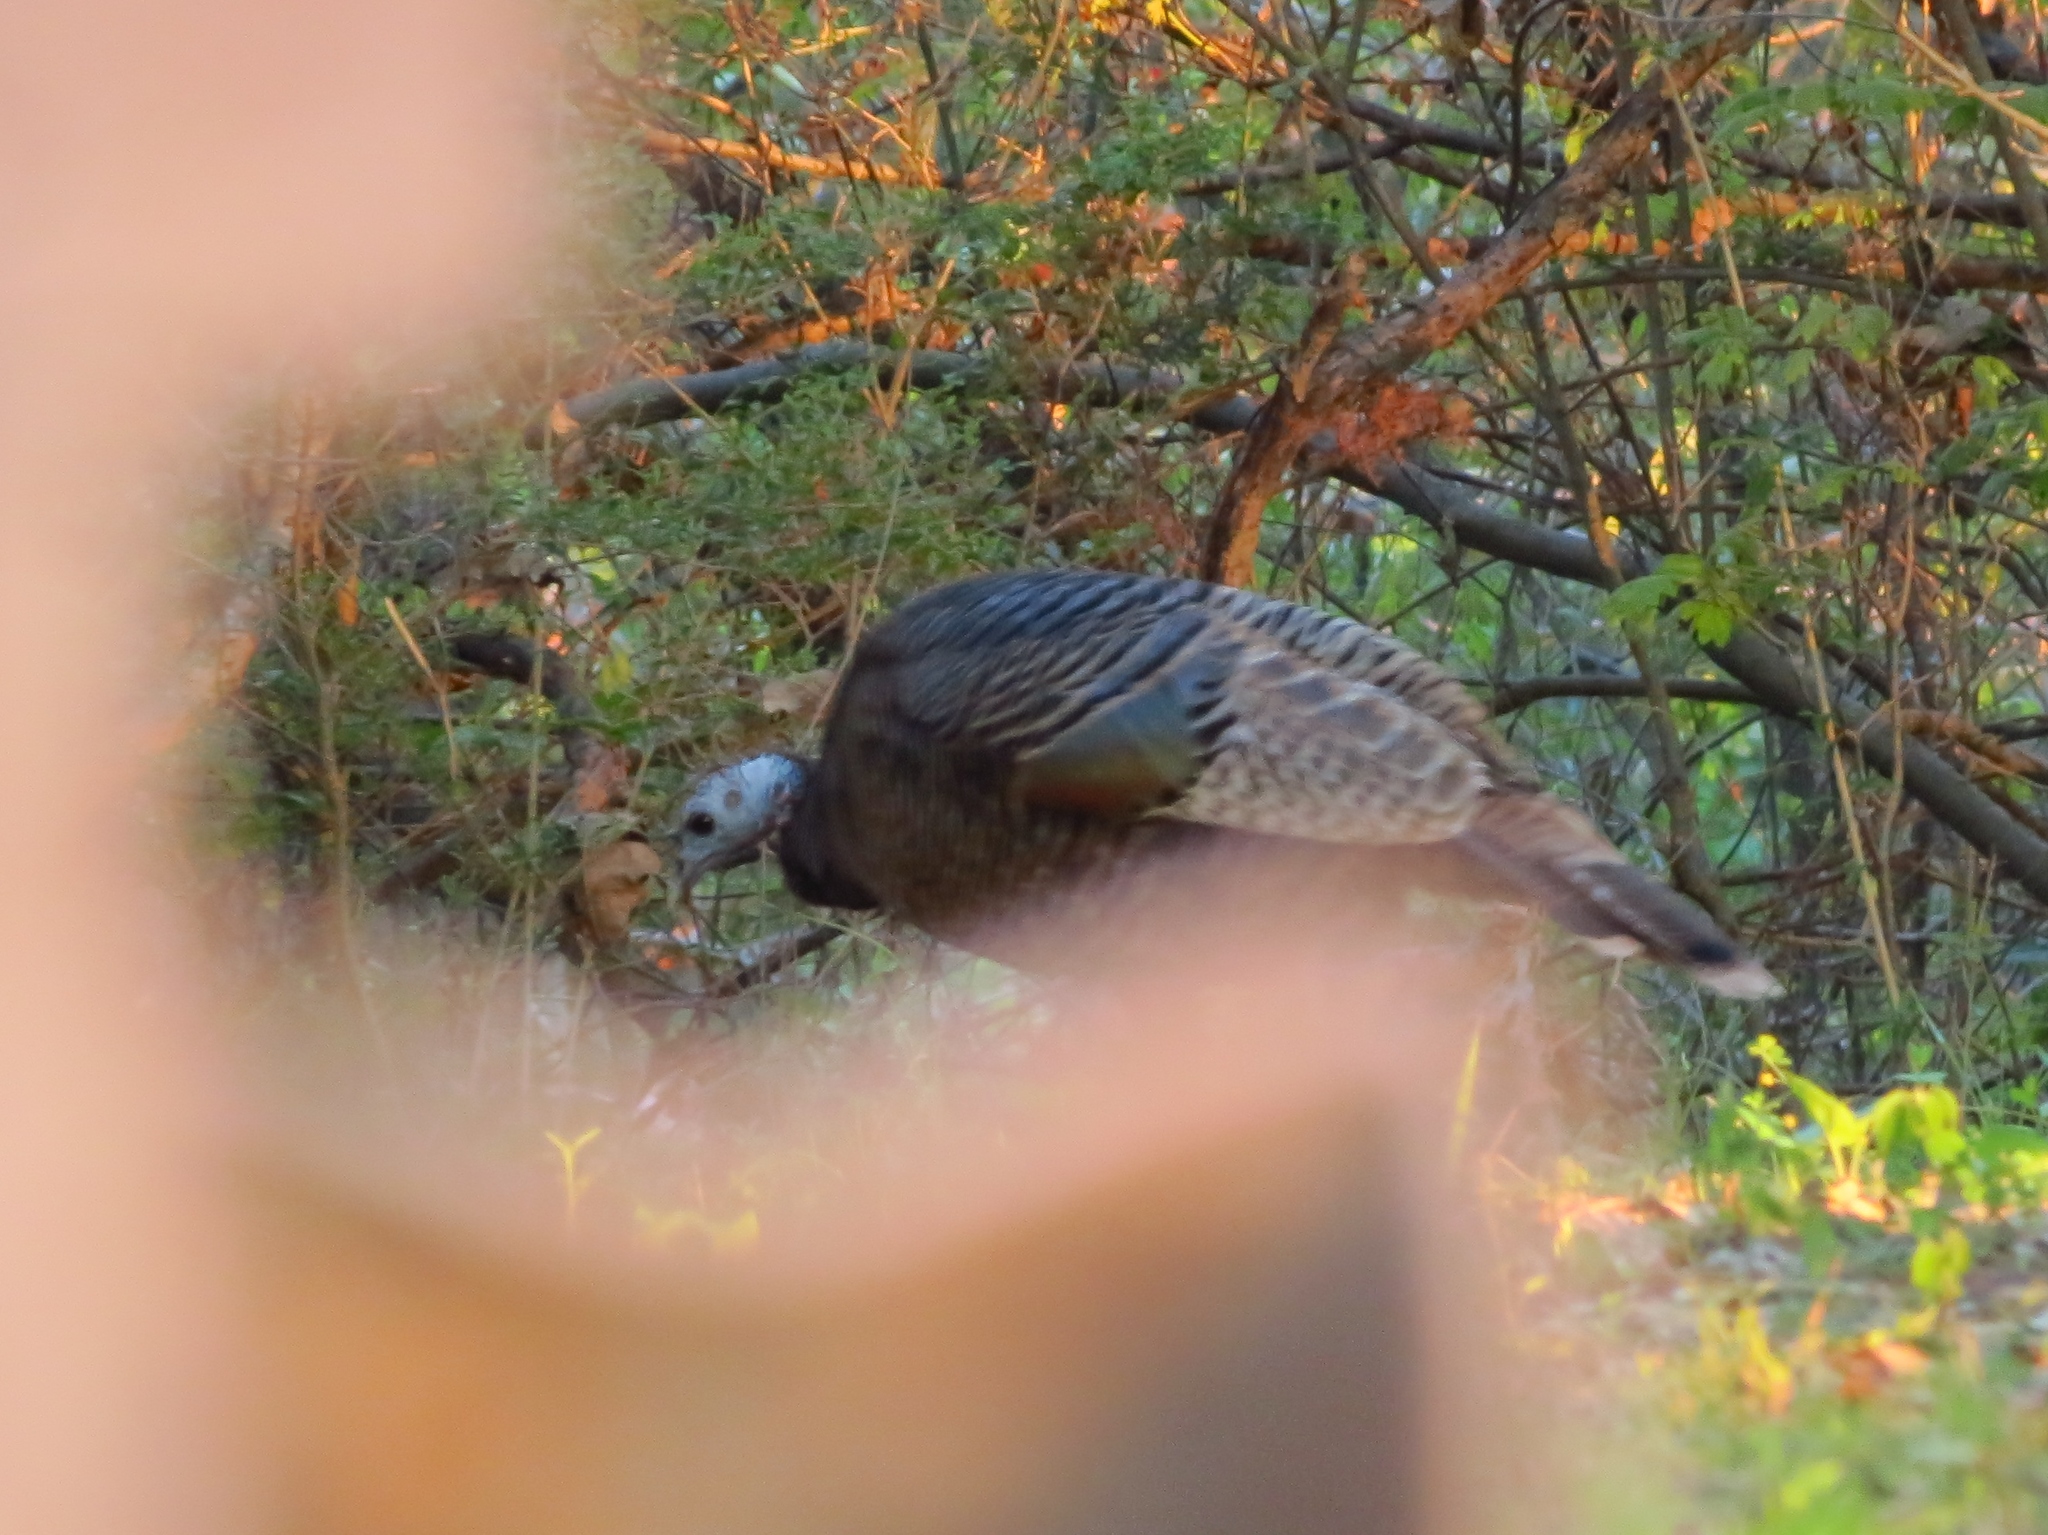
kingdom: Animalia
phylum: Chordata
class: Aves
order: Galliformes
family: Phasianidae
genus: Meleagris
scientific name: Meleagris gallopavo
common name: Wild turkey
